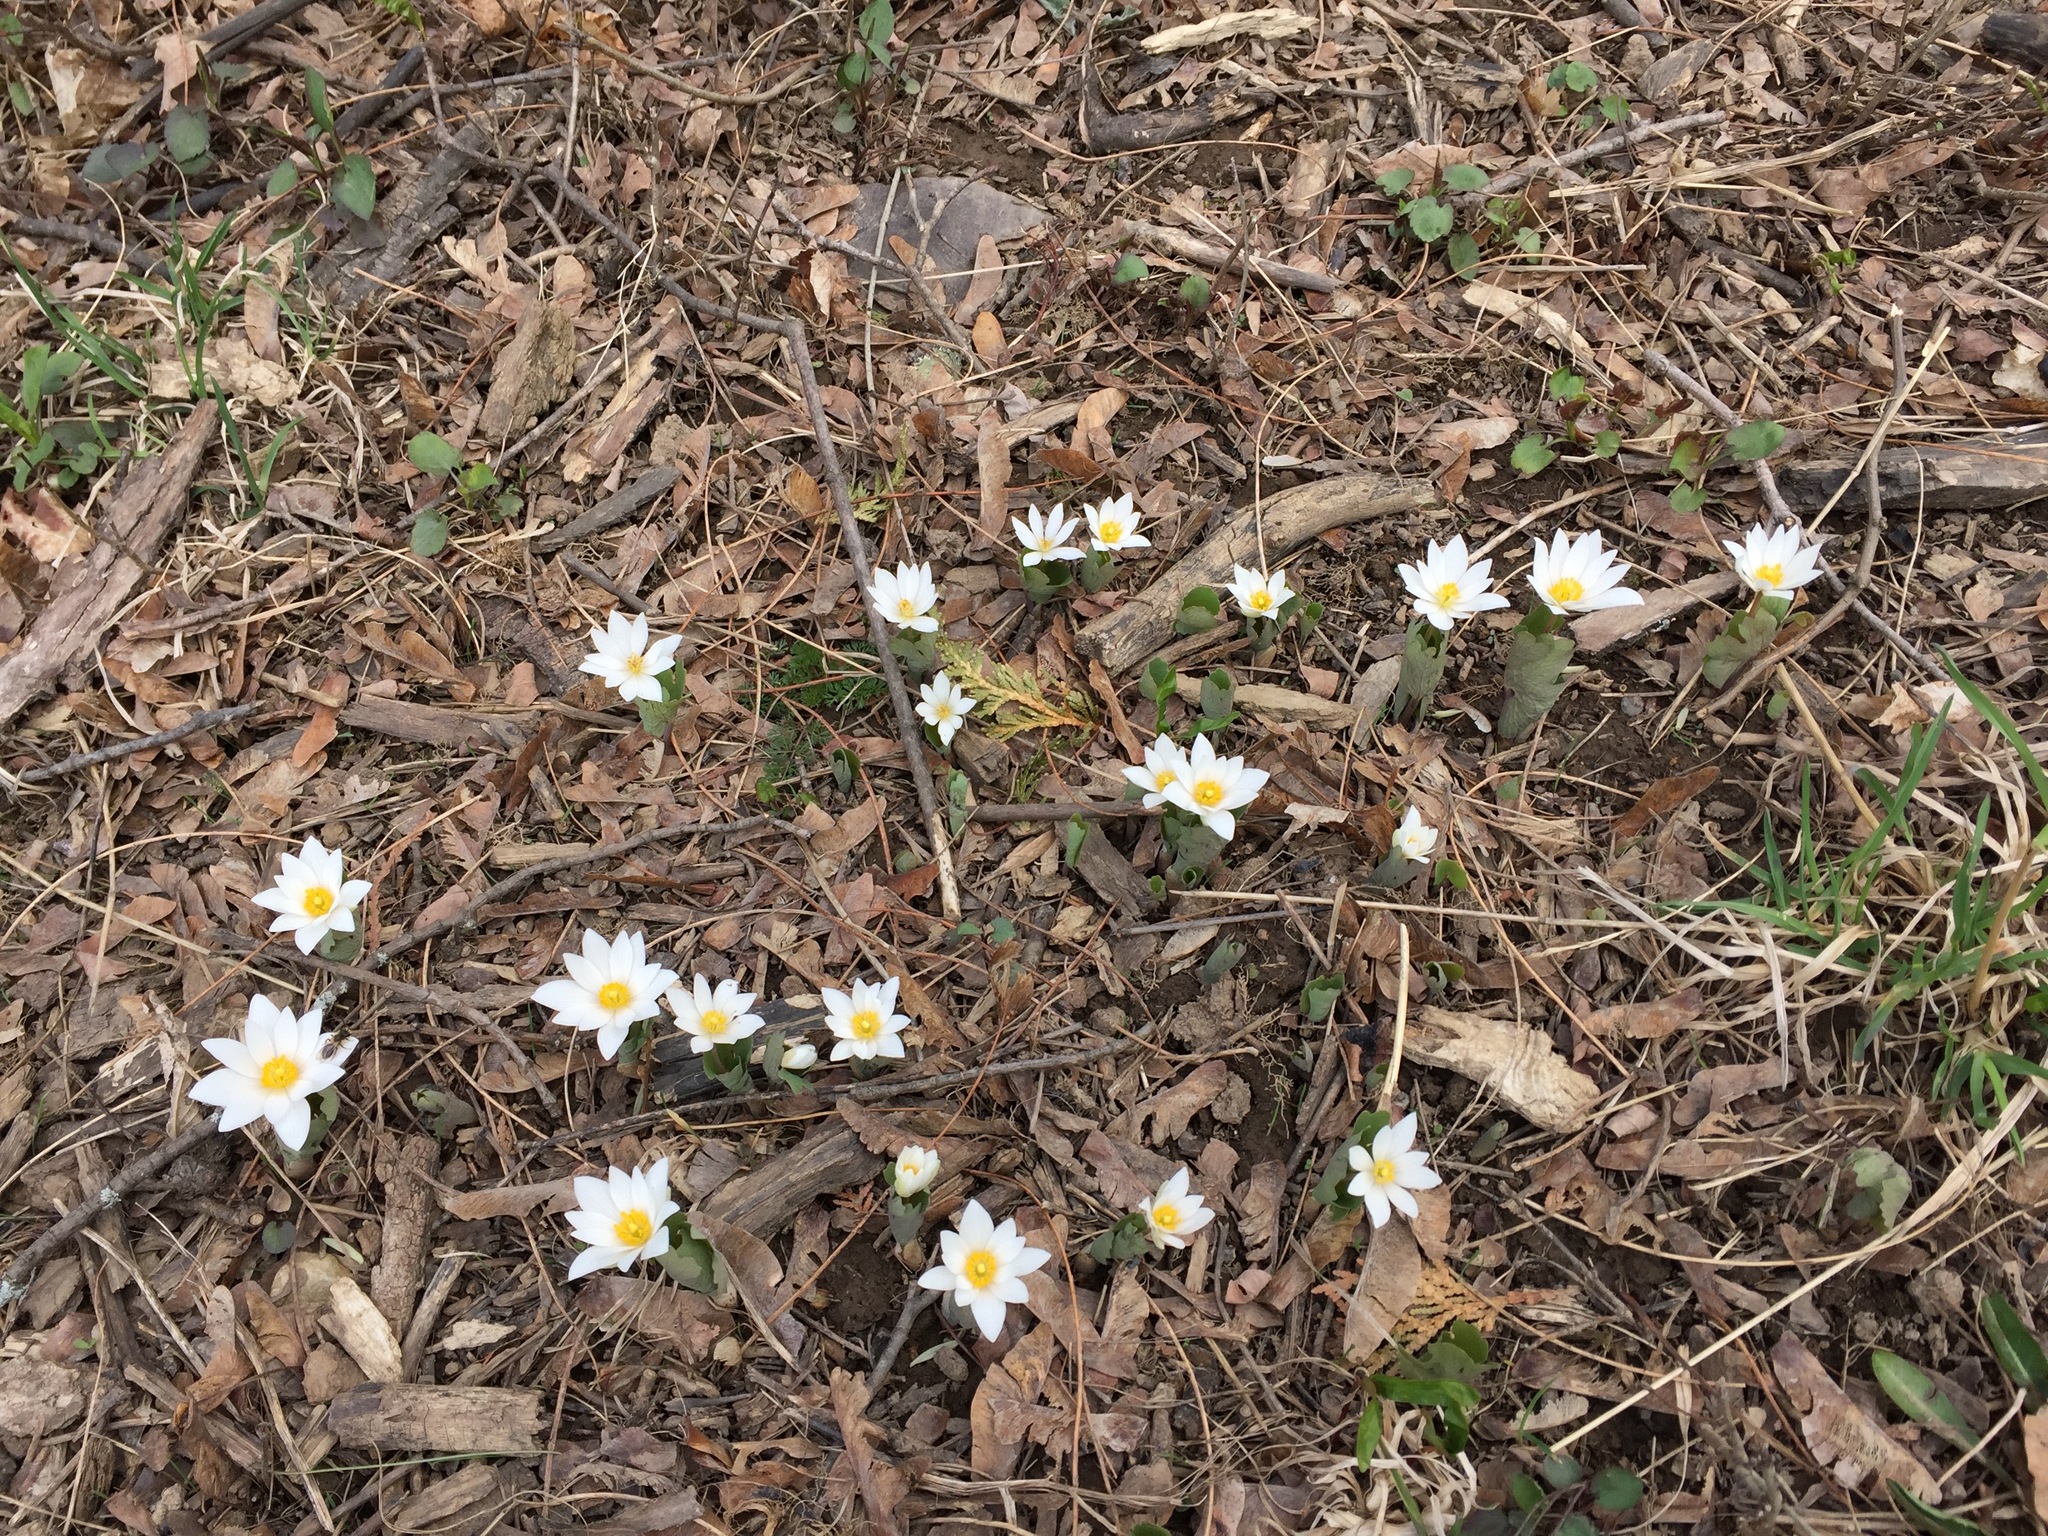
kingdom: Plantae
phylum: Tracheophyta
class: Magnoliopsida
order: Ranunculales
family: Papaveraceae
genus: Sanguinaria
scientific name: Sanguinaria canadensis
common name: Bloodroot
